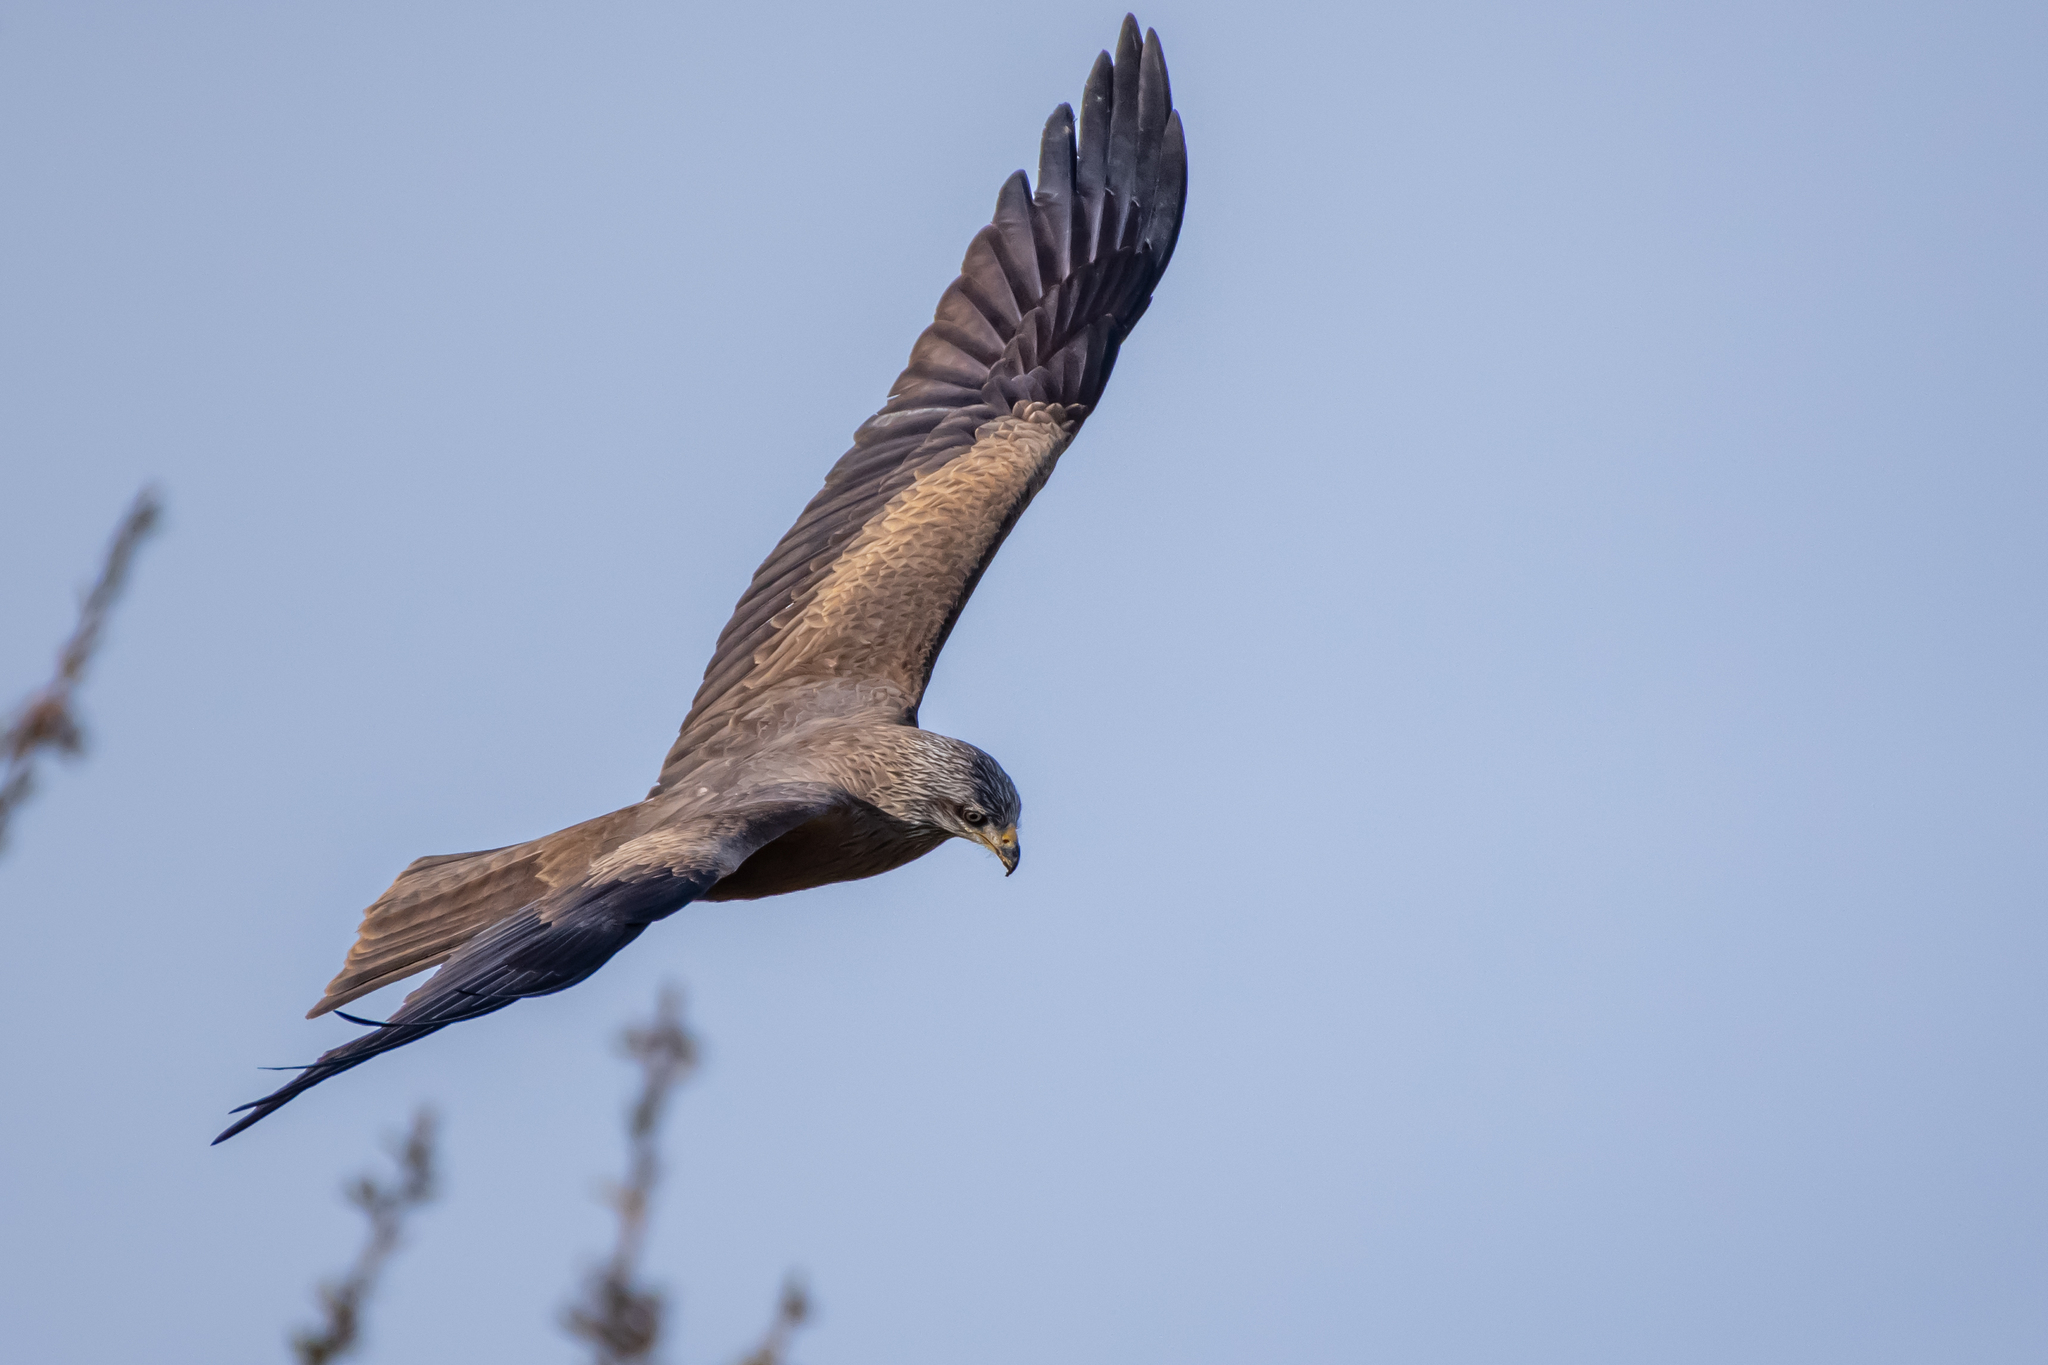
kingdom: Animalia
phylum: Chordata
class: Aves
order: Accipitriformes
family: Accipitridae
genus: Milvus
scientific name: Milvus migrans
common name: Black kite
